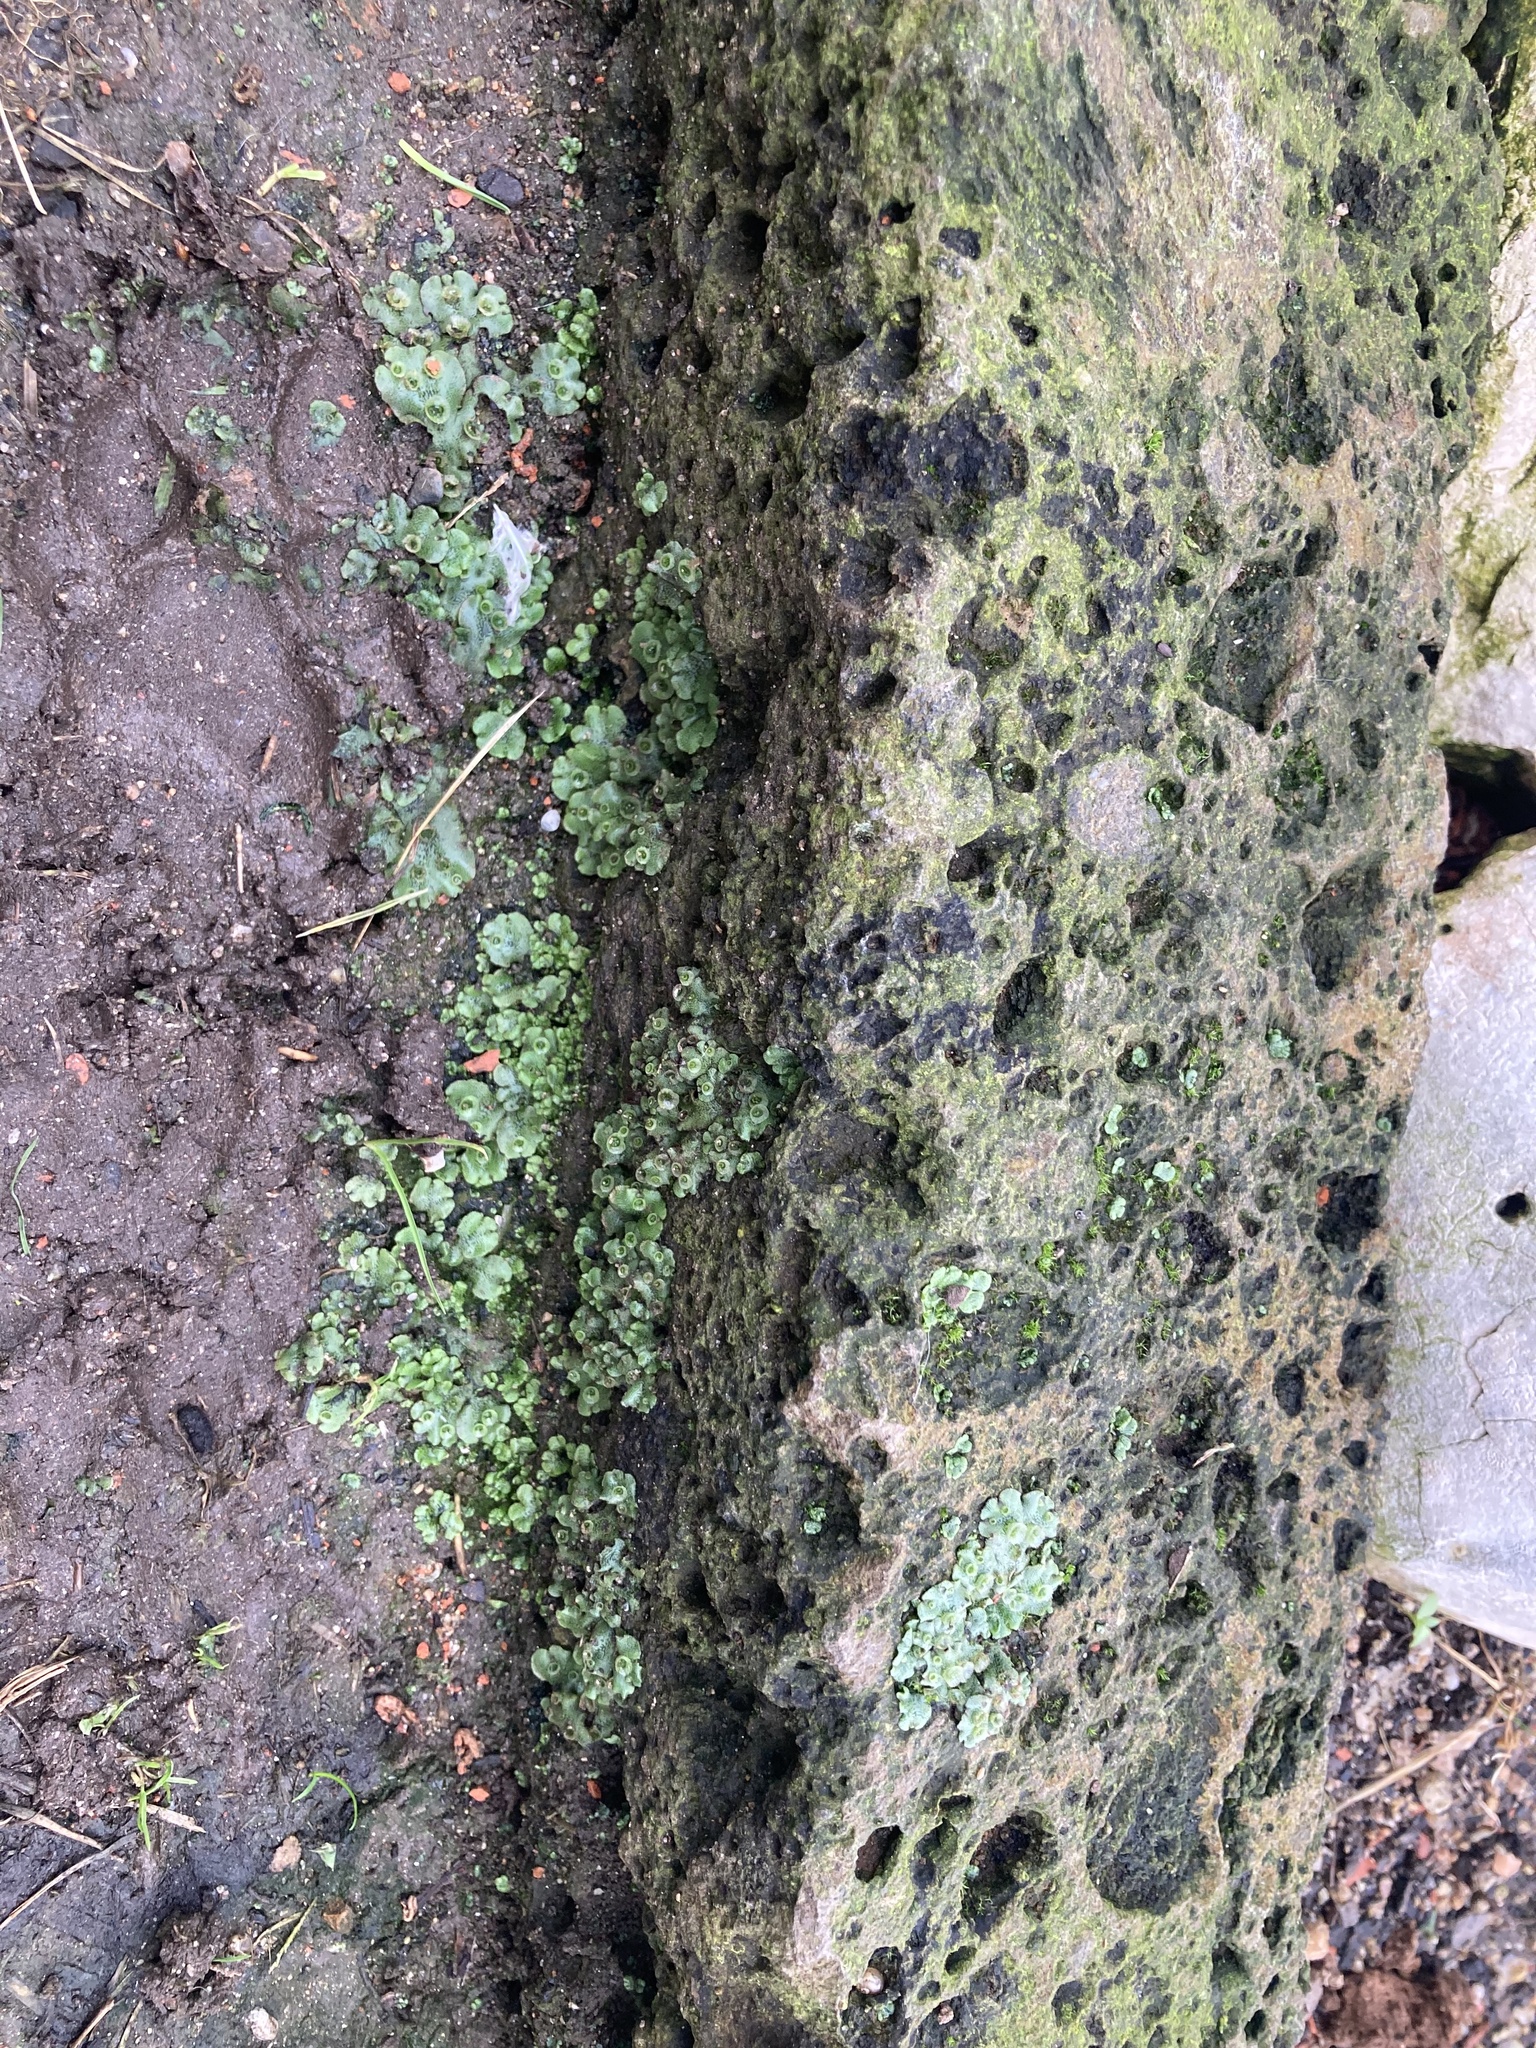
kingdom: Plantae
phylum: Marchantiophyta
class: Marchantiopsida
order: Marchantiales
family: Marchantiaceae
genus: Marchantia
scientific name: Marchantia polymorpha
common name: Common liverwort
